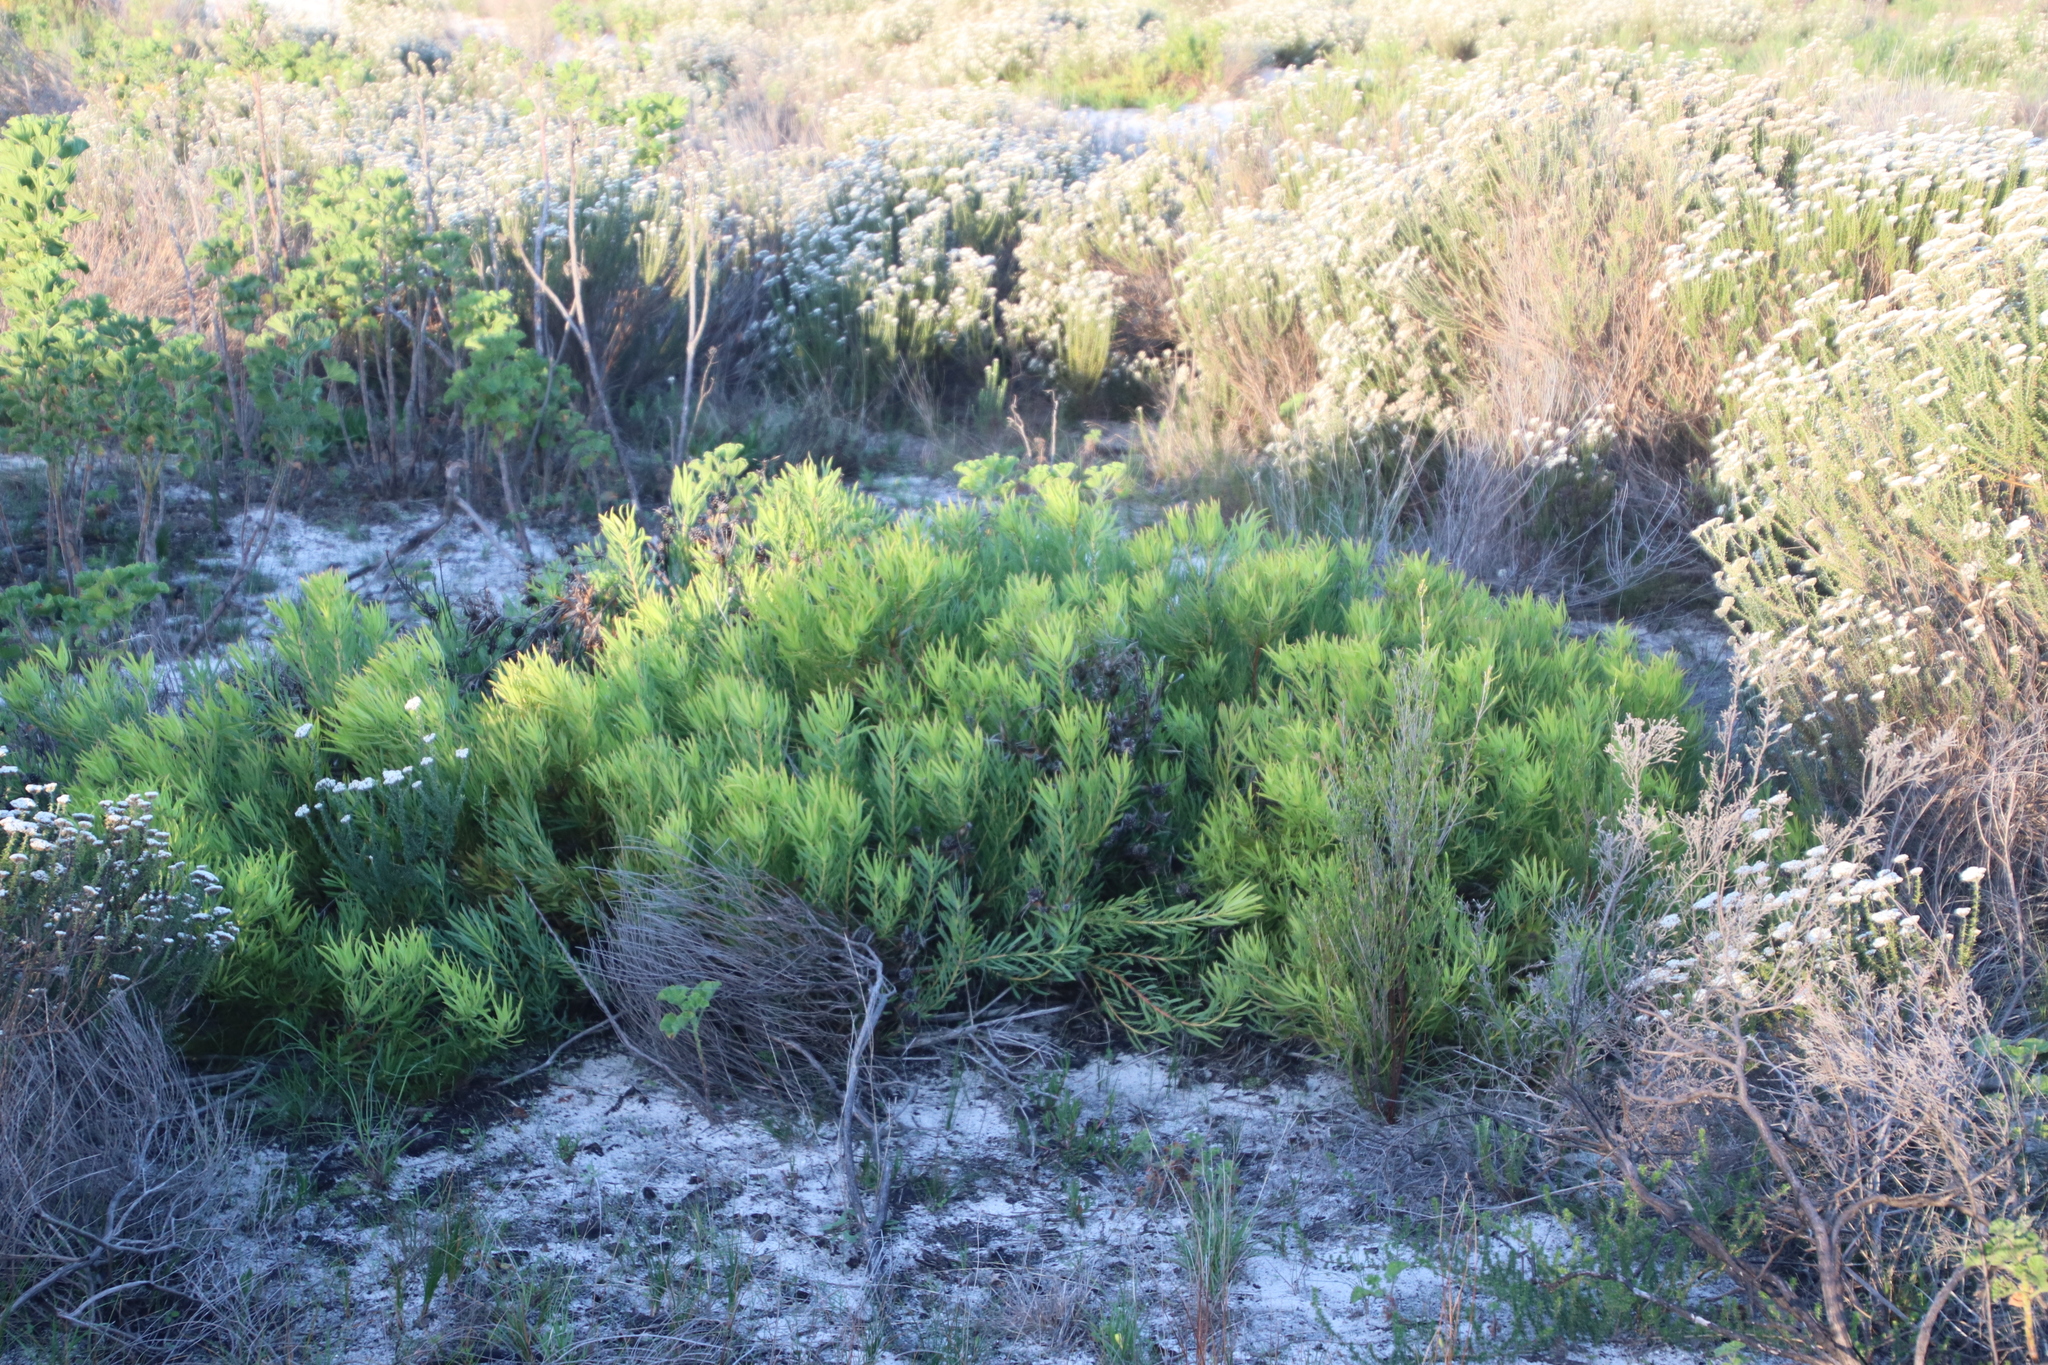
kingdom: Plantae
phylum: Tracheophyta
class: Magnoliopsida
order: Proteales
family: Proteaceae
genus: Leucadendron
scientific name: Leucadendron salignum
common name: Common sunshine conebush
